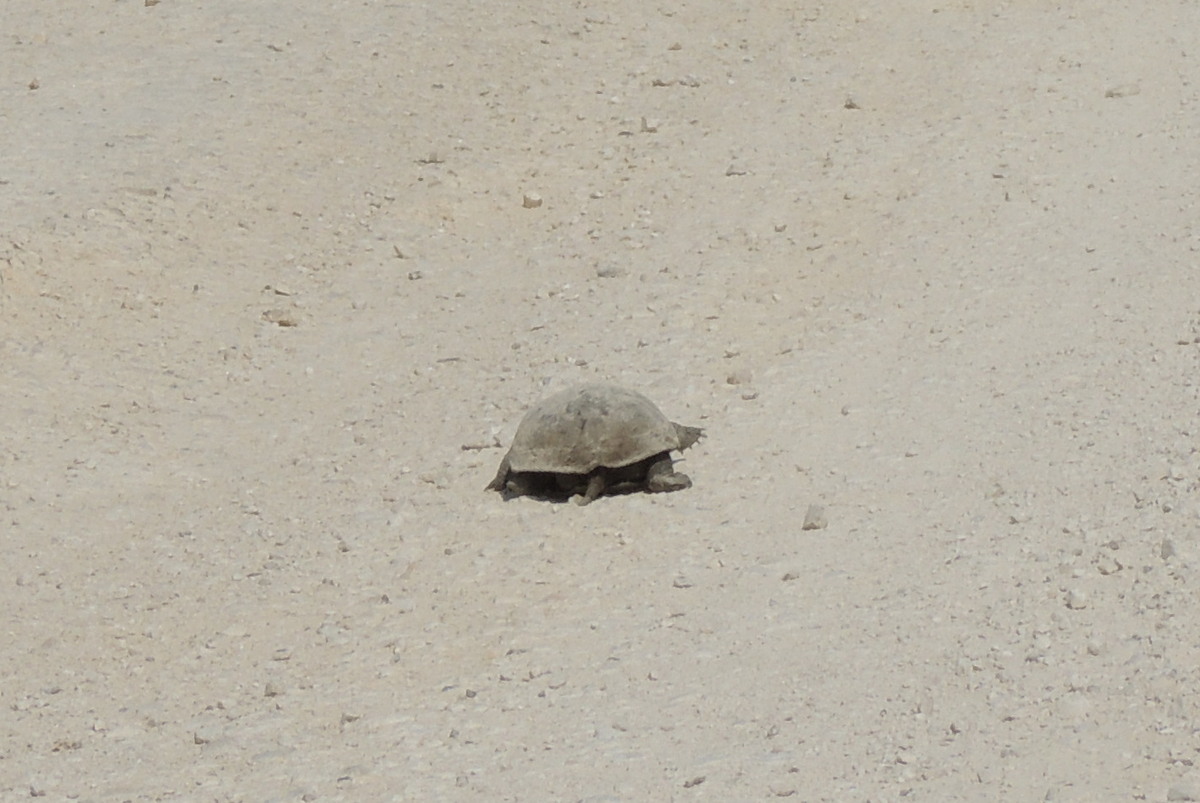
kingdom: Animalia
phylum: Chordata
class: Testudines
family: Geoemydidae
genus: Mauremys
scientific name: Mauremys rivulata
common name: Western caspian turtle
